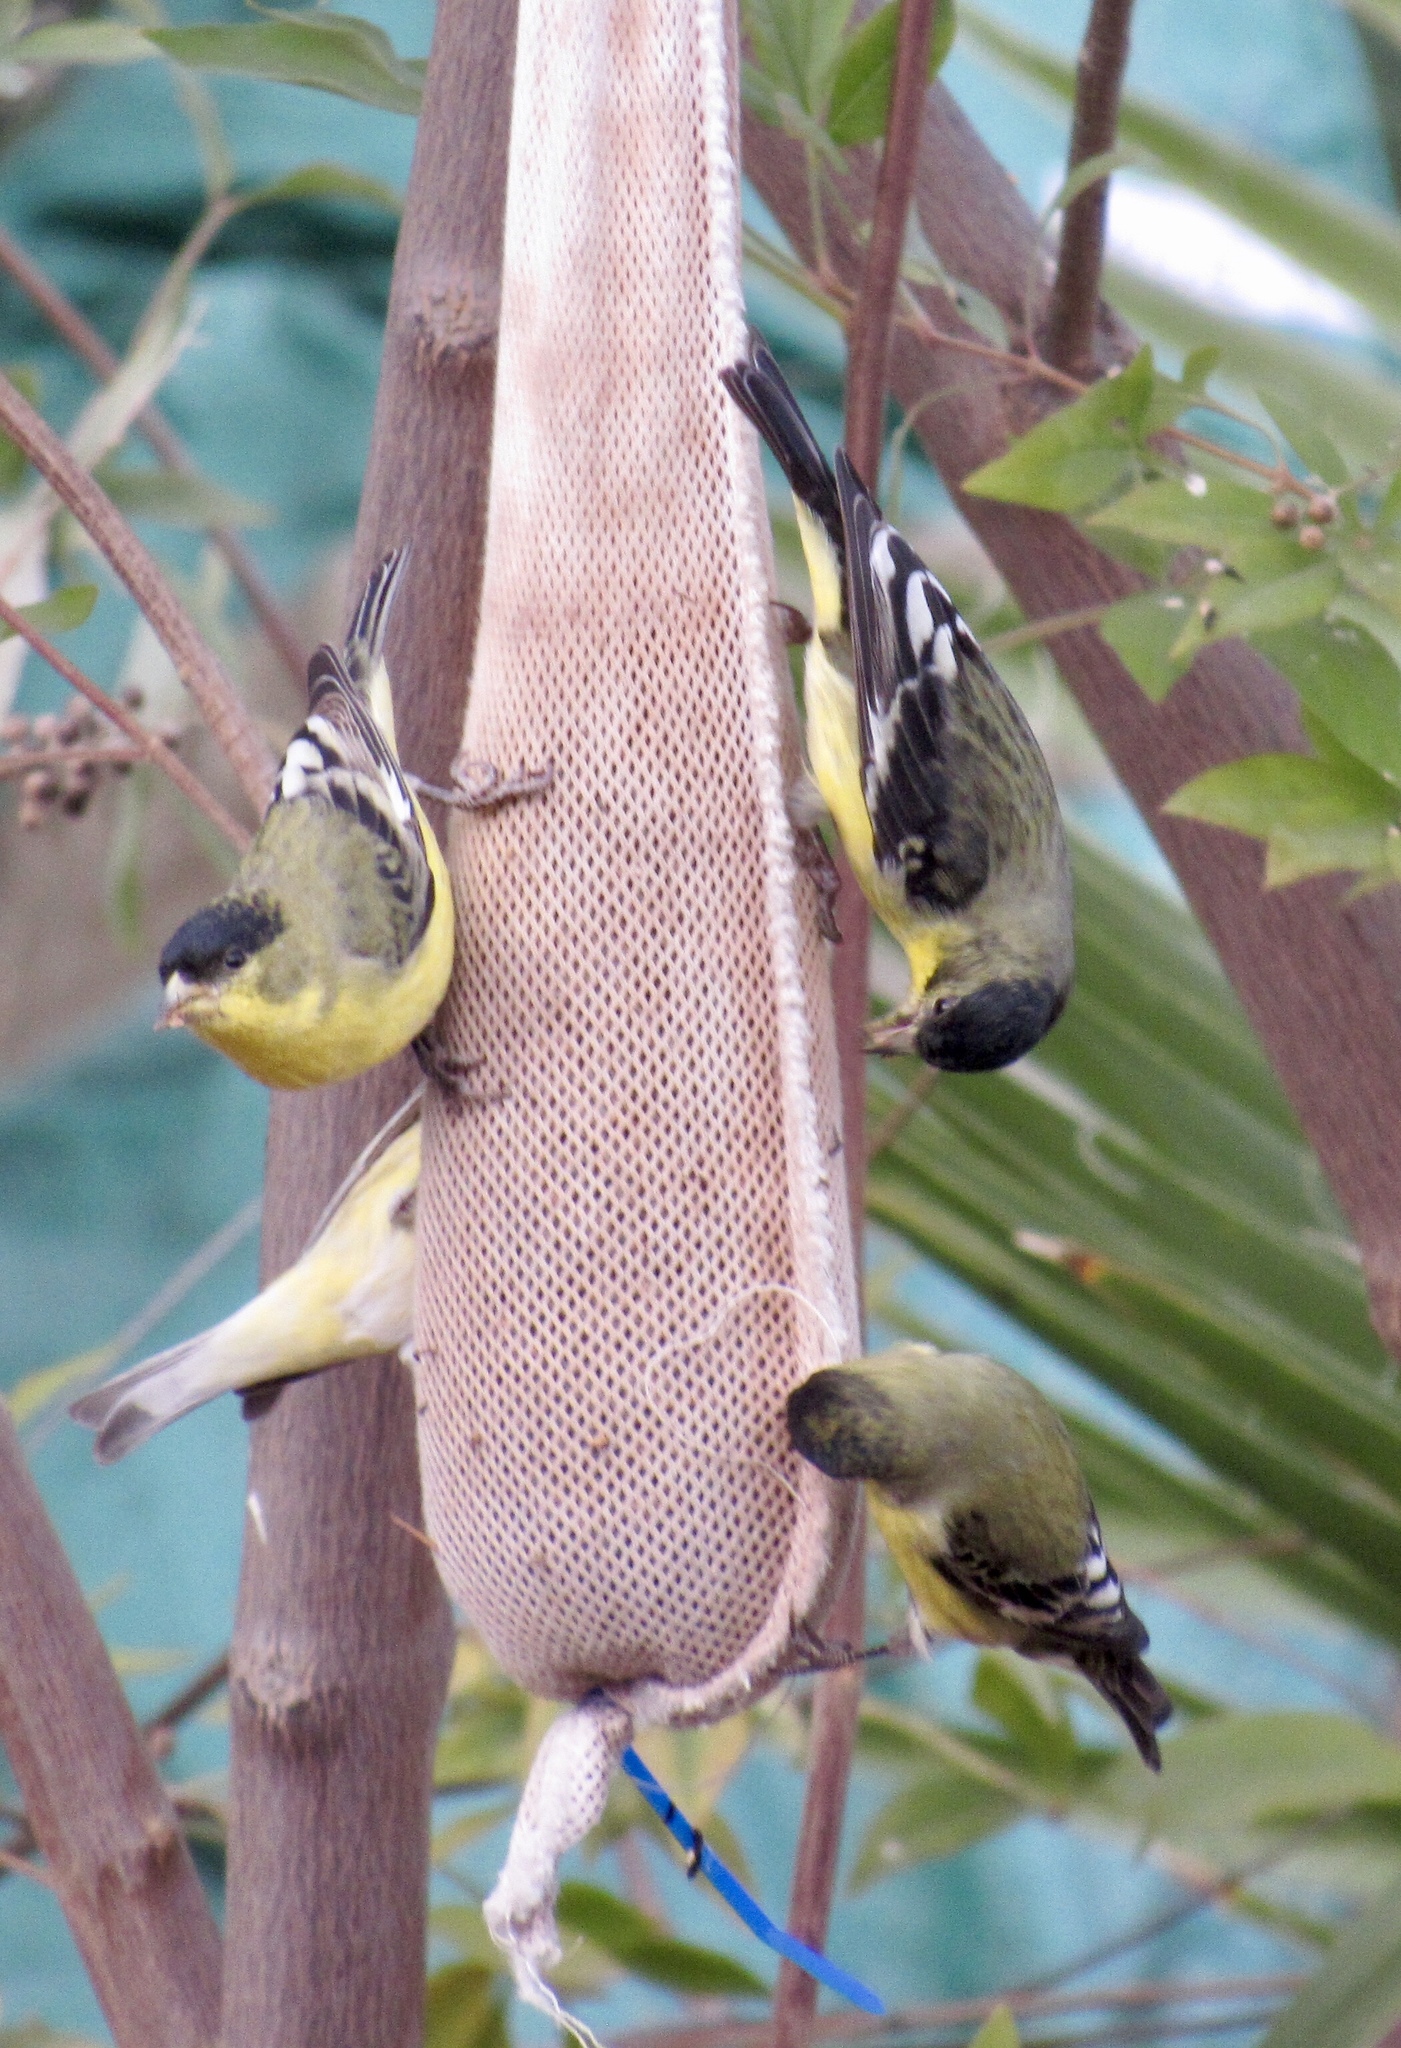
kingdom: Animalia
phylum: Chordata
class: Aves
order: Passeriformes
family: Fringillidae
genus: Spinus
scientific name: Spinus psaltria
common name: Lesser goldfinch
